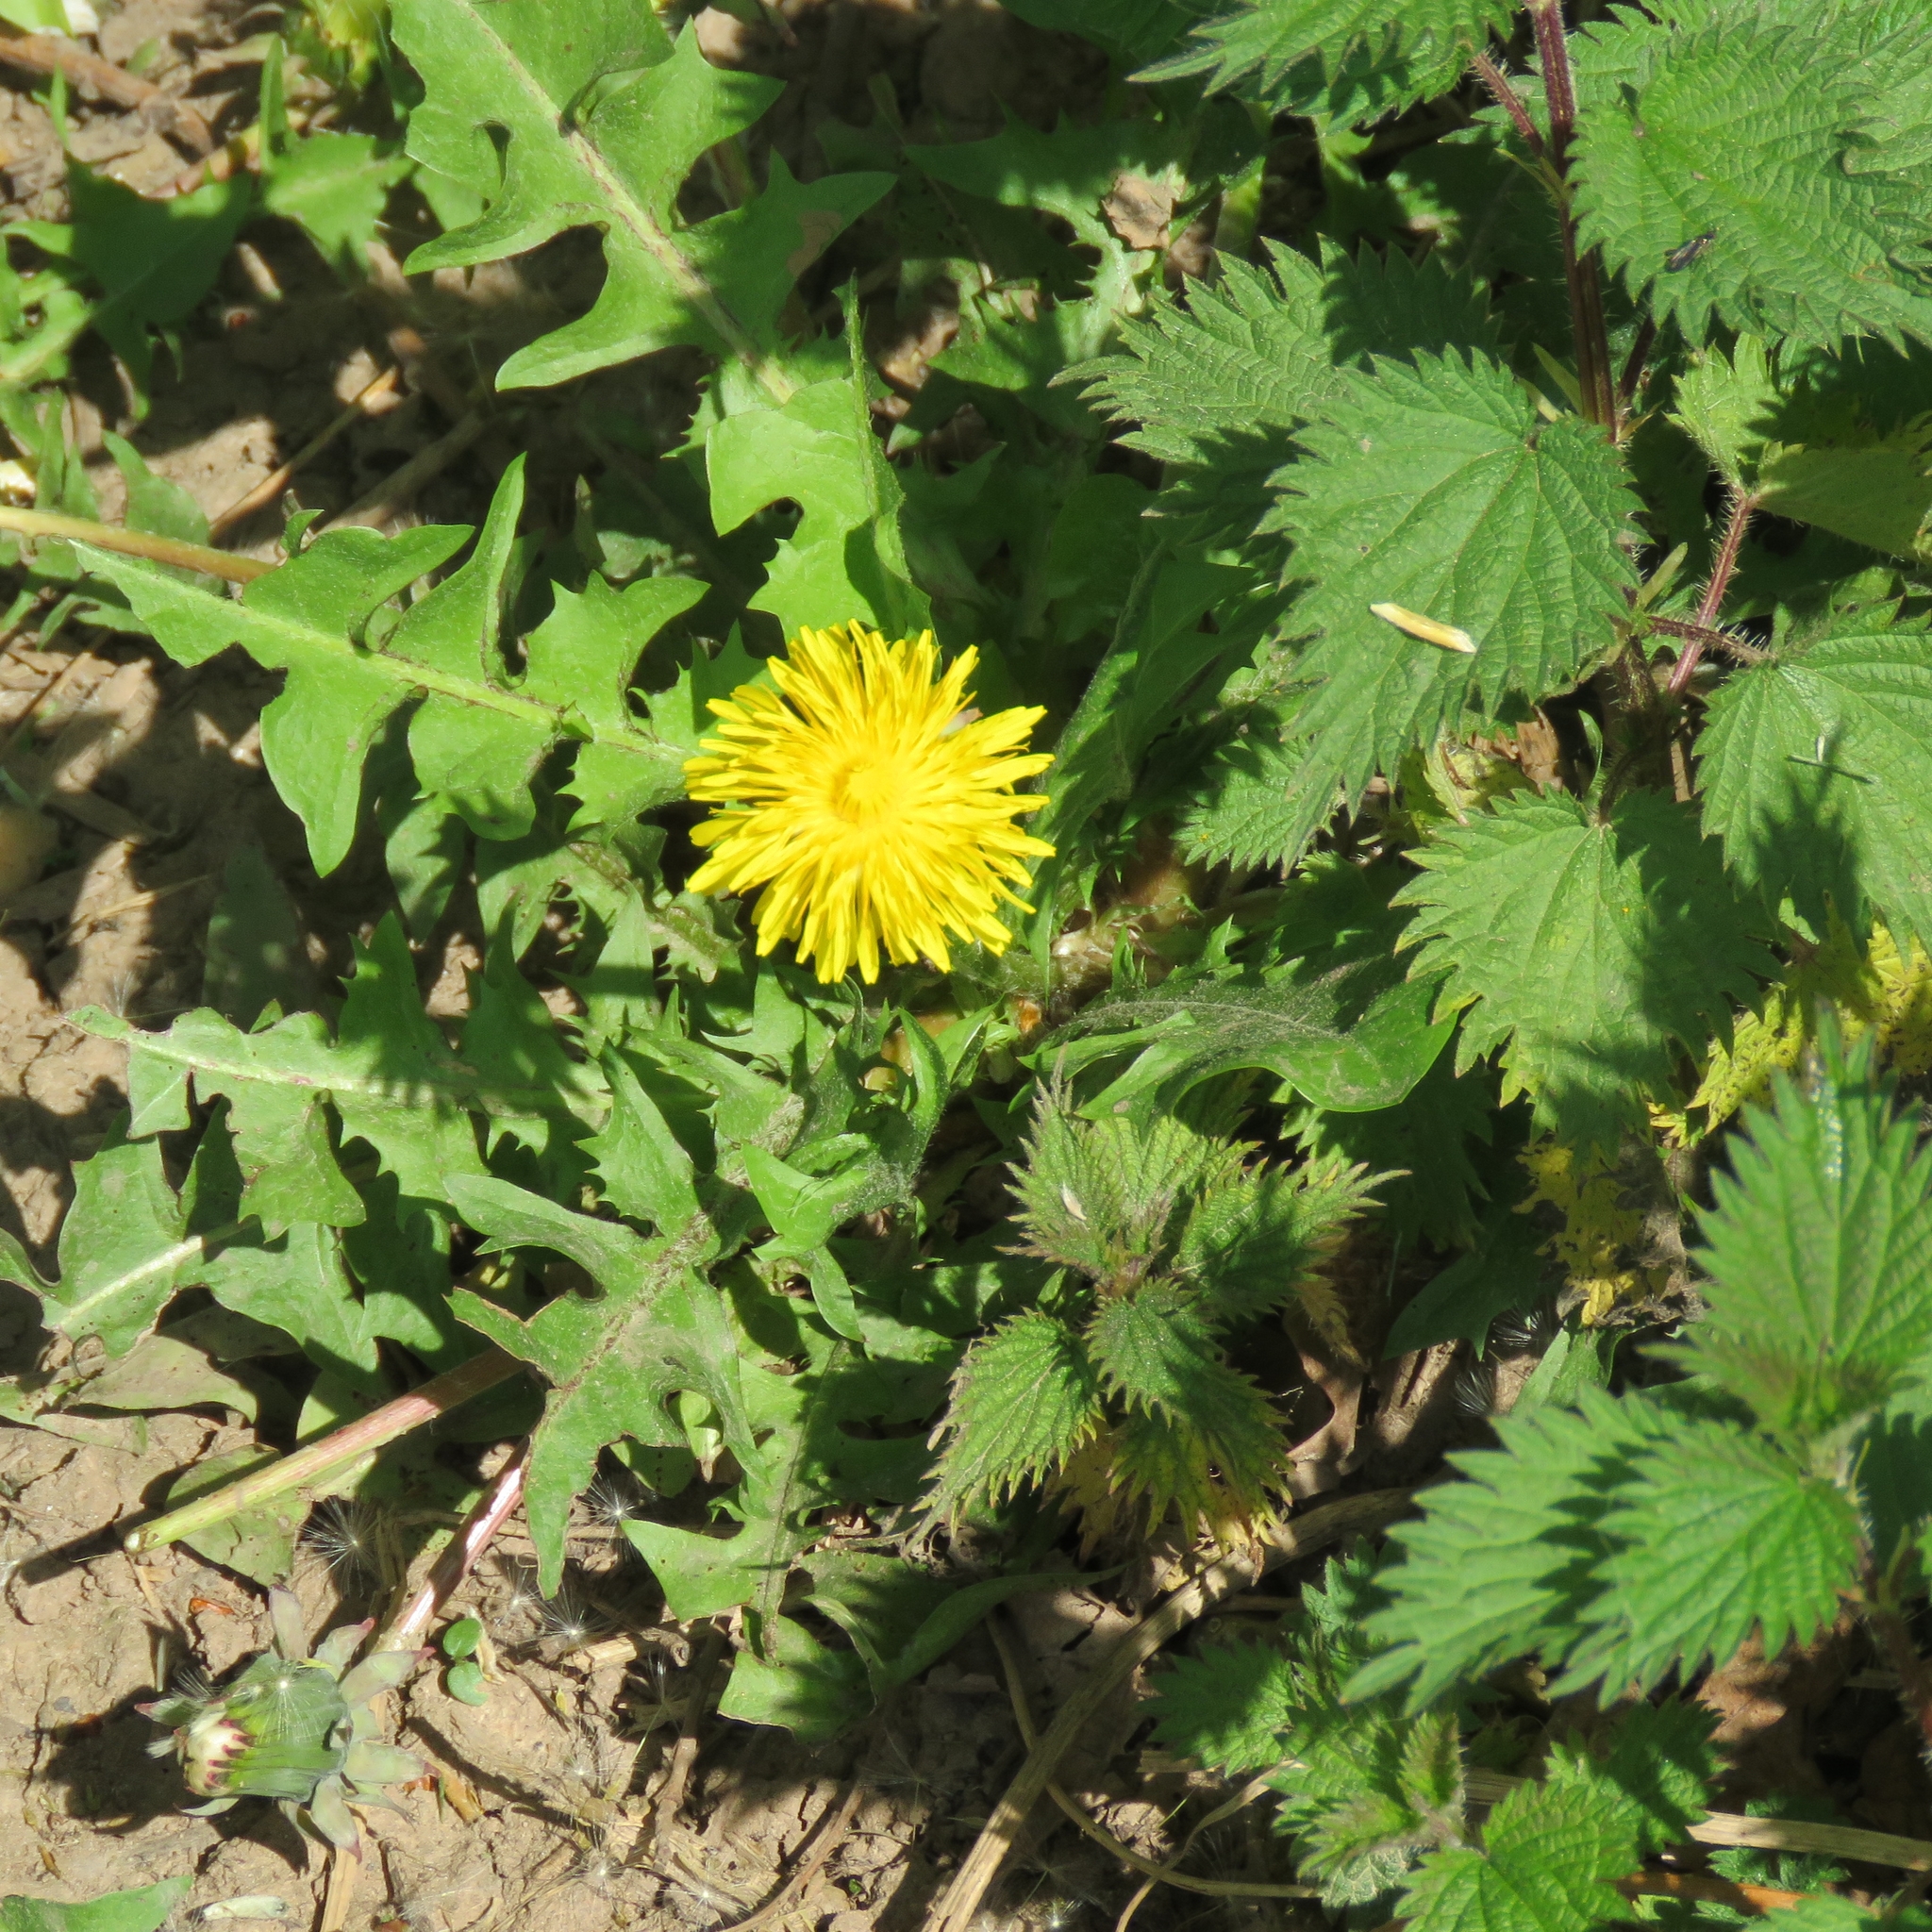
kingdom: Plantae
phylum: Tracheophyta
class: Magnoliopsida
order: Rosales
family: Urticaceae
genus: Urtica
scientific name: Urtica dioica
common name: Common nettle
